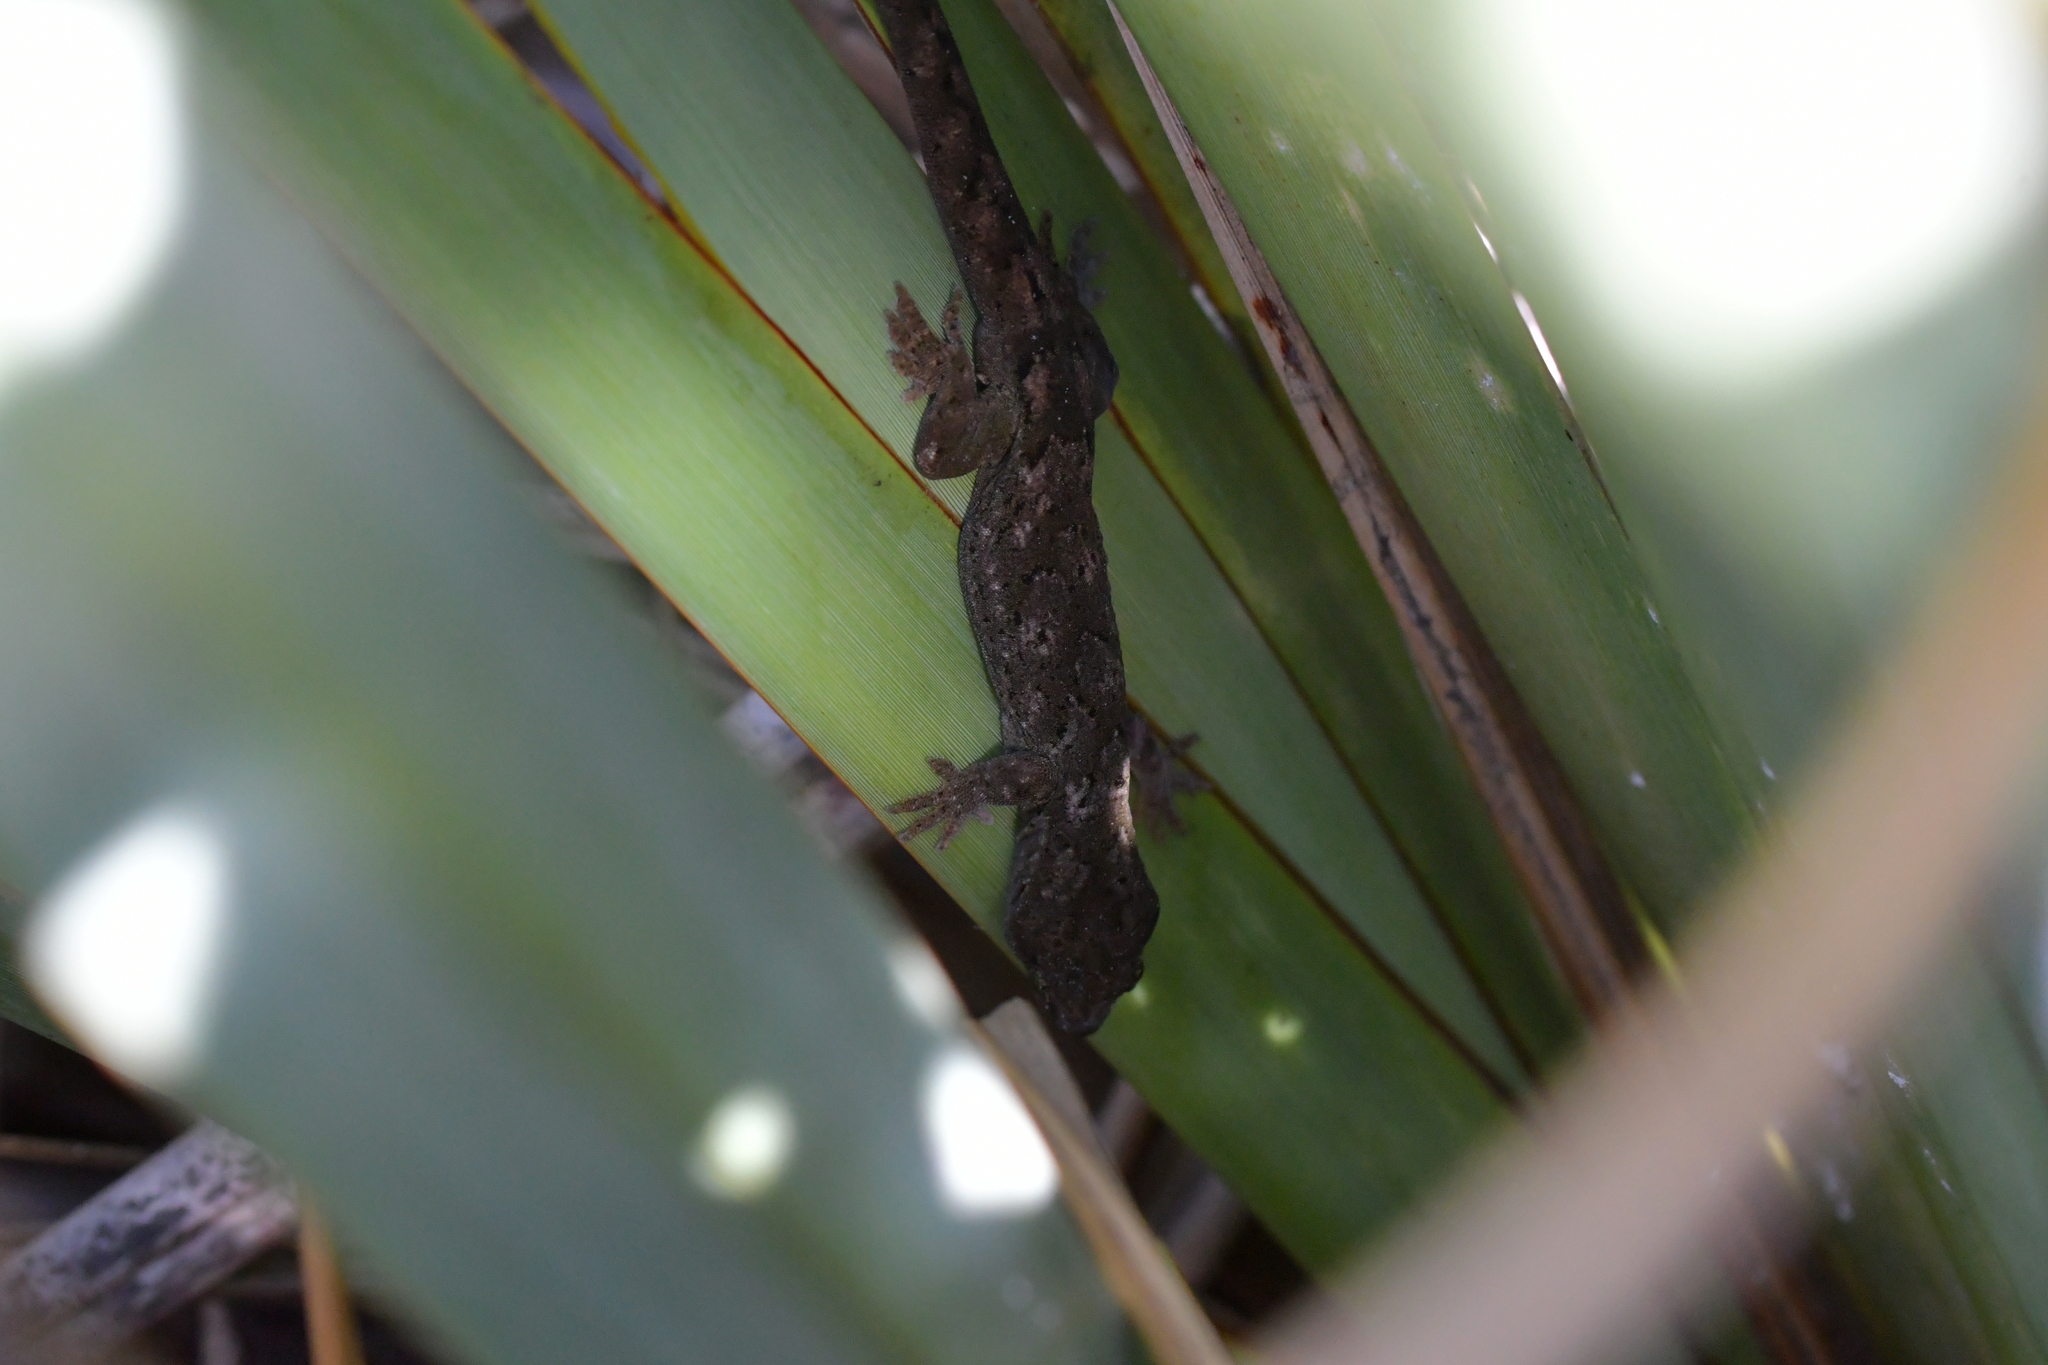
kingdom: Animalia
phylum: Chordata
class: Squamata
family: Diplodactylidae
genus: Woodworthia
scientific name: Woodworthia maculata
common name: Raukawa gecko
